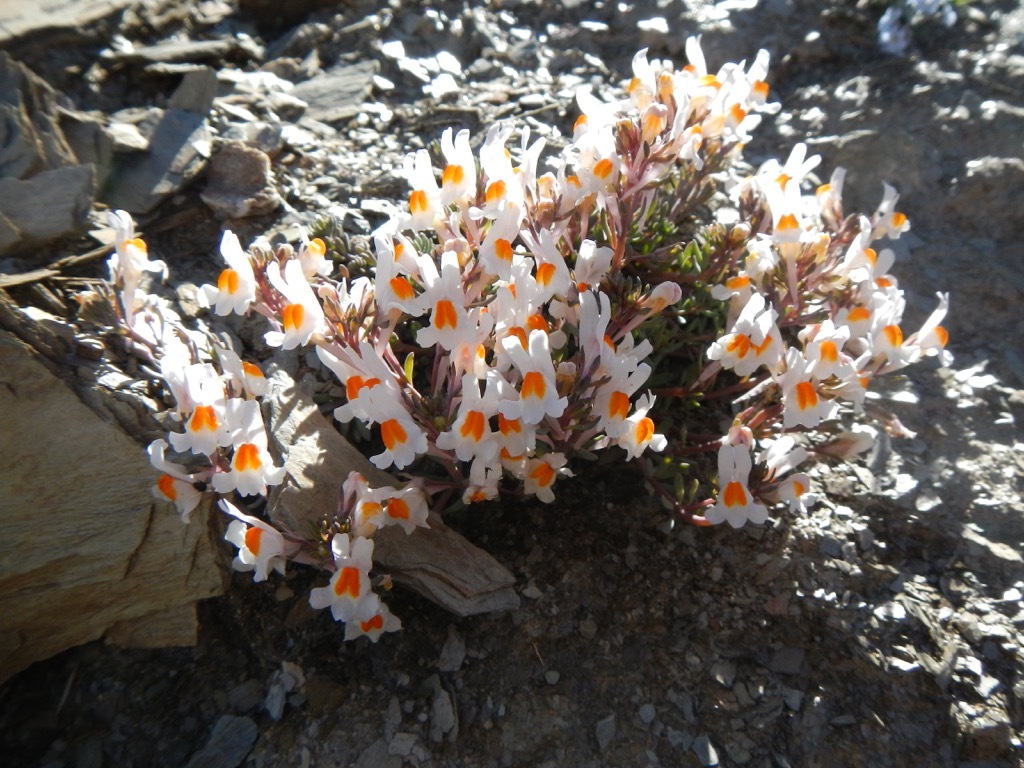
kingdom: Plantae
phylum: Tracheophyta
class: Magnoliopsida
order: Lamiales
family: Plantaginaceae
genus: Linaria
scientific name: Linaria alpina
